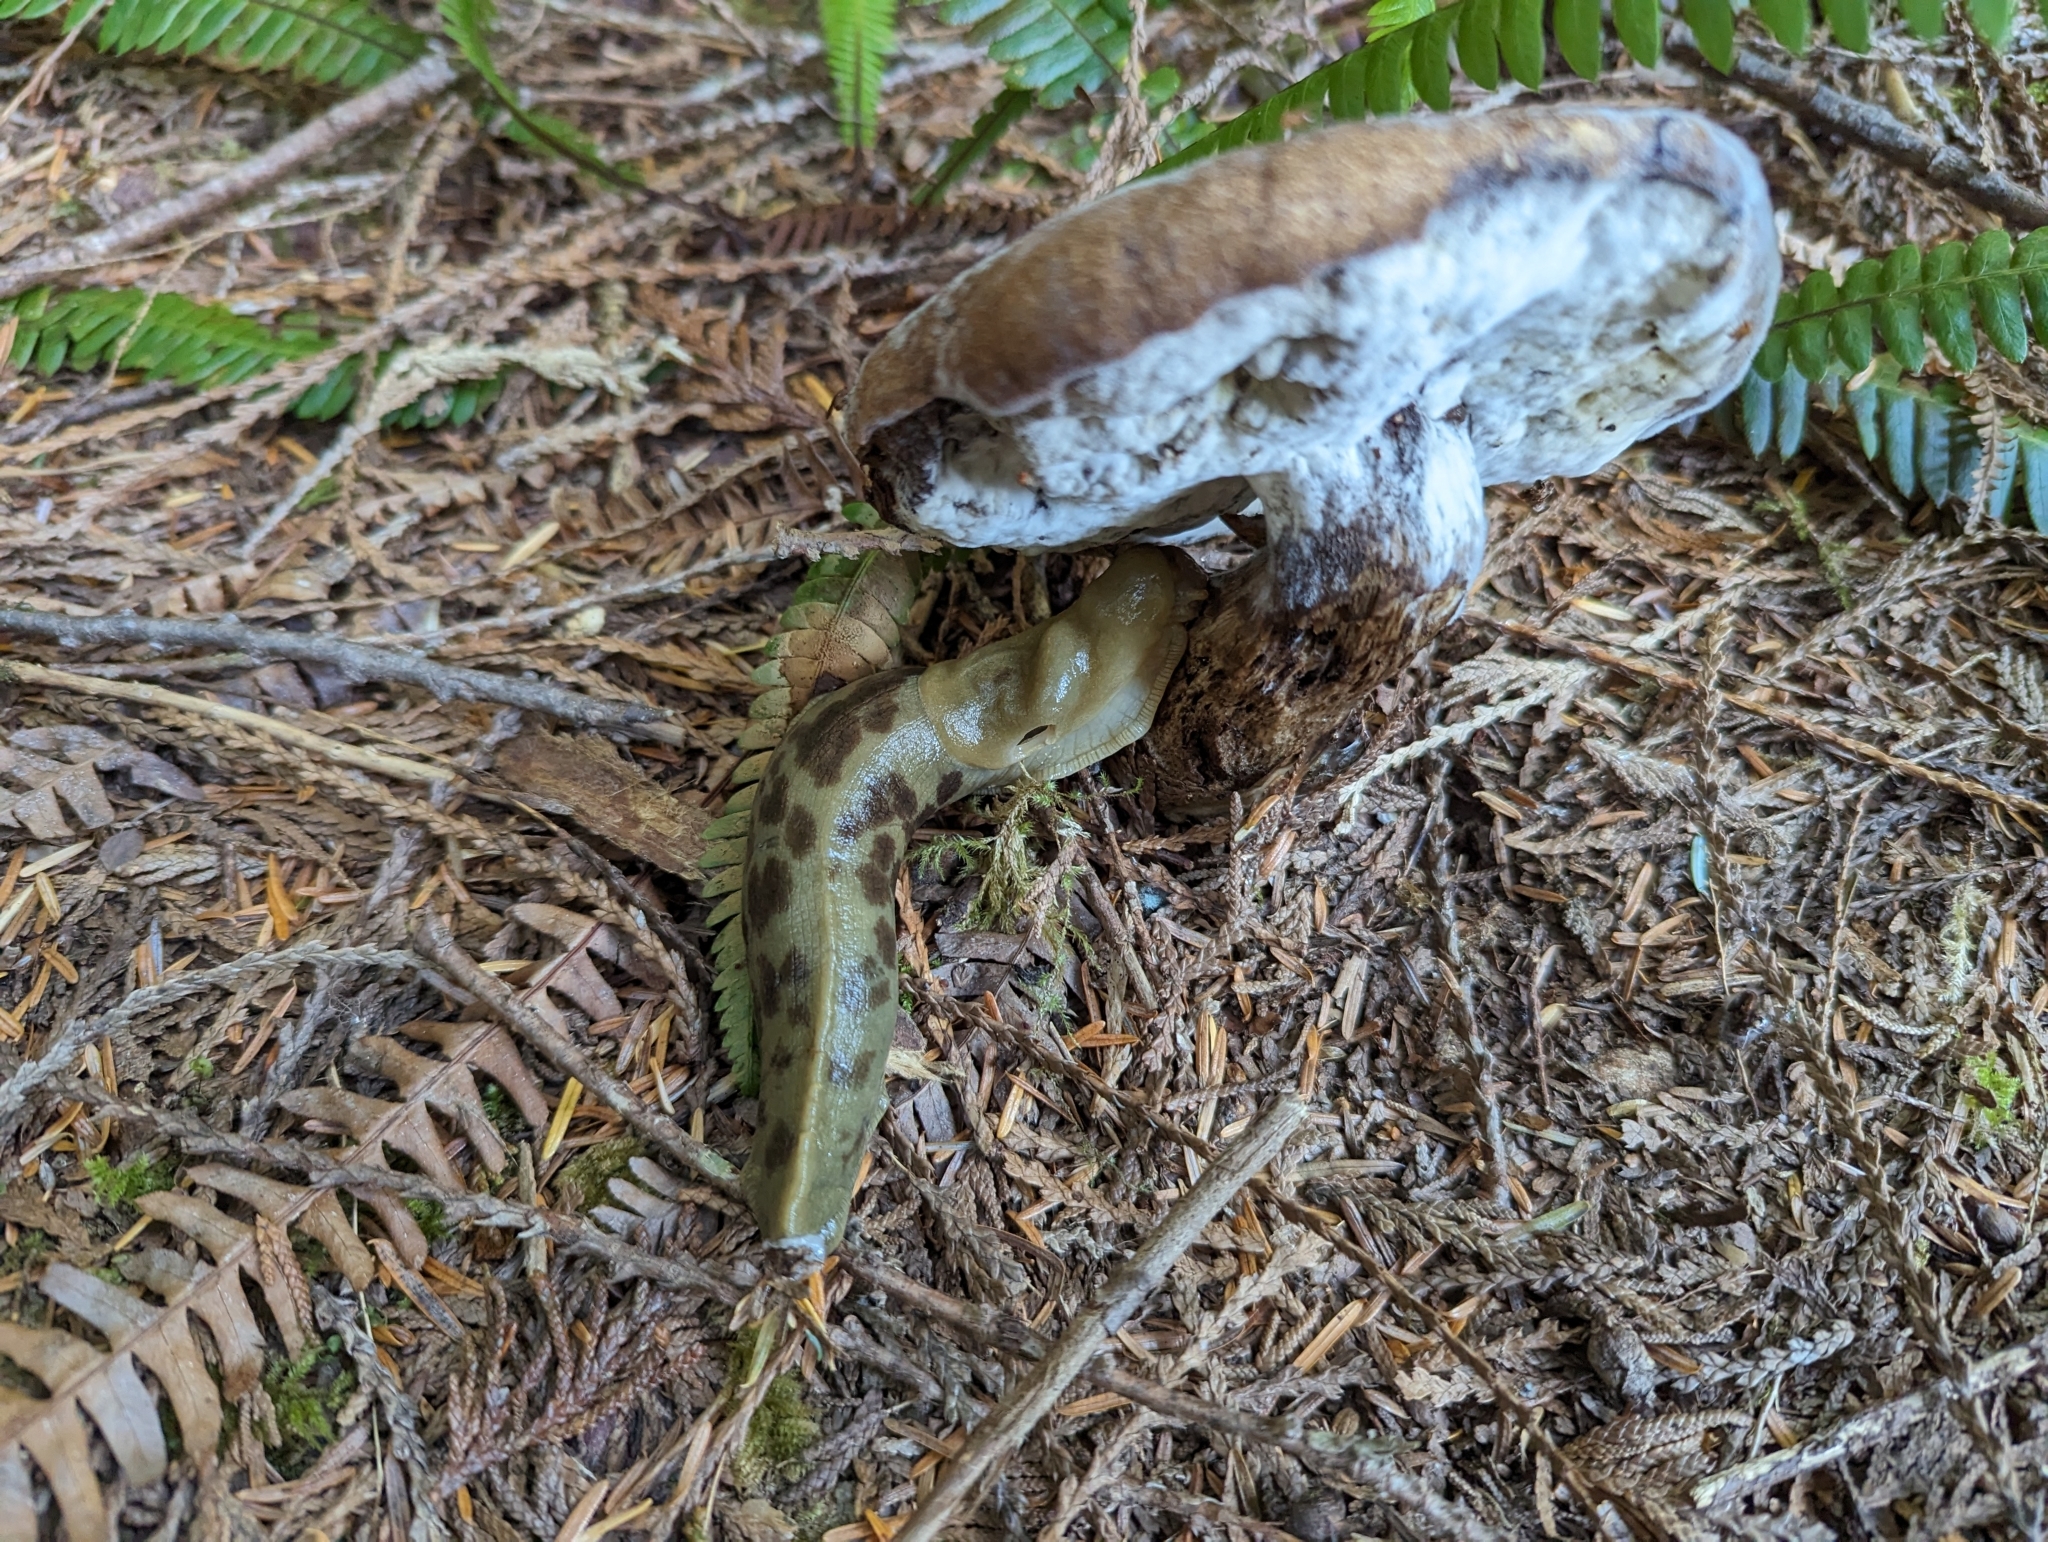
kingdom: Animalia
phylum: Mollusca
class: Gastropoda
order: Stylommatophora
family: Ariolimacidae
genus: Ariolimax
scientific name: Ariolimax columbianus
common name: Pacific banana slug
